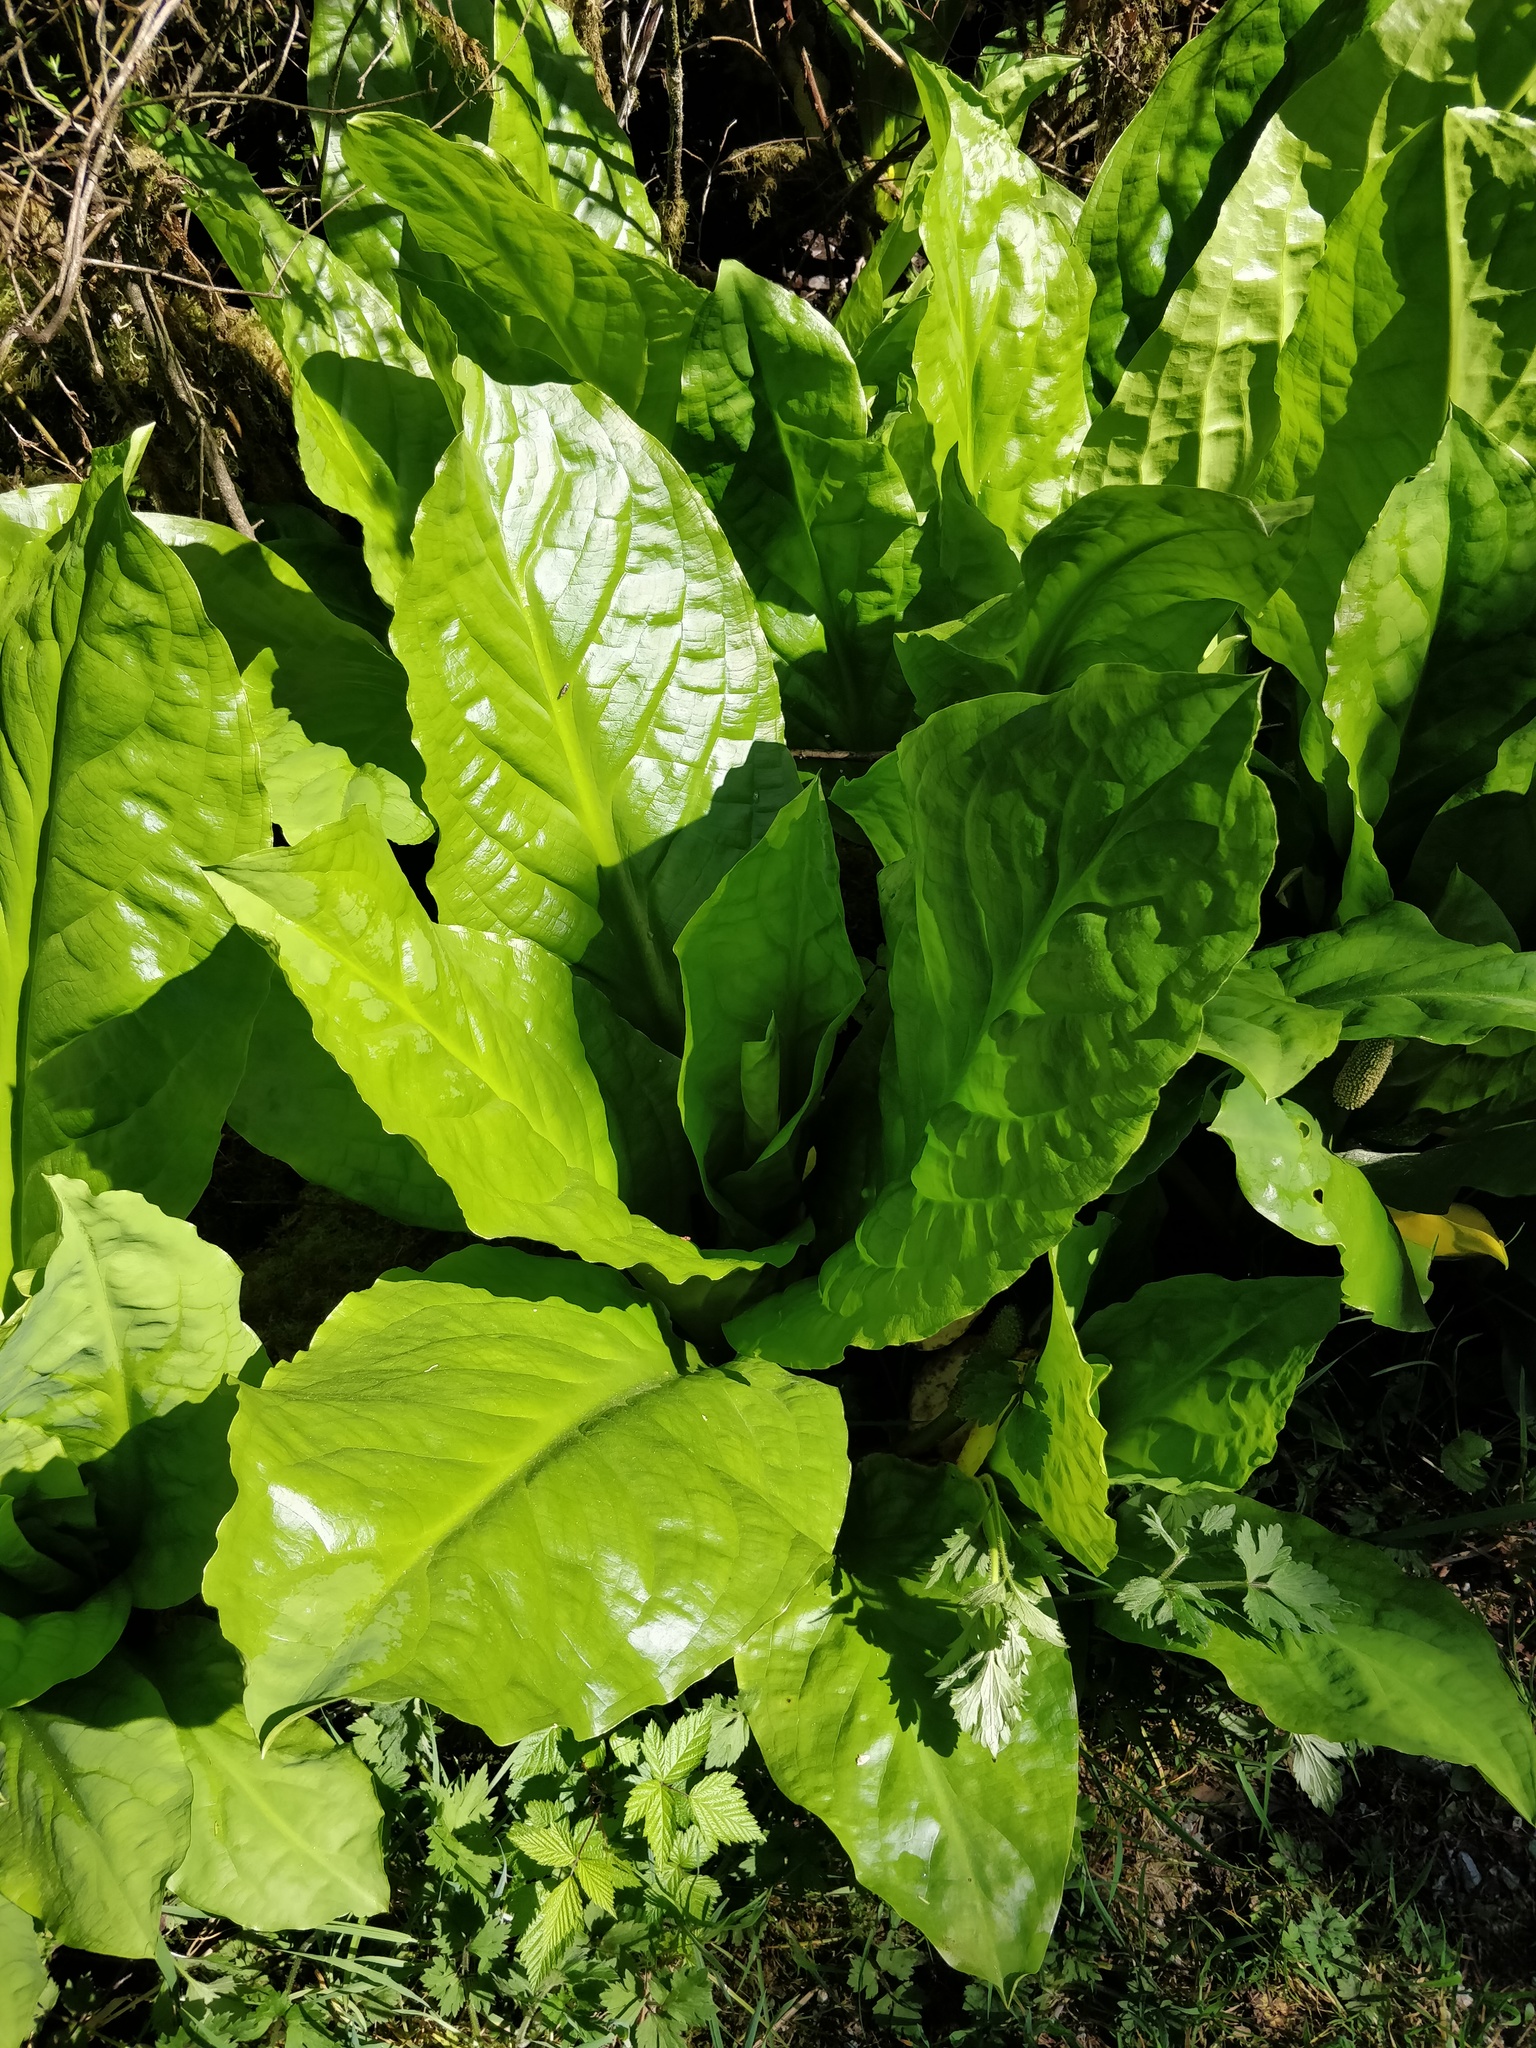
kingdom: Plantae
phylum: Tracheophyta
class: Liliopsida
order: Alismatales
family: Araceae
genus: Lysichiton
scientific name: Lysichiton americanus
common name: American skunk cabbage
